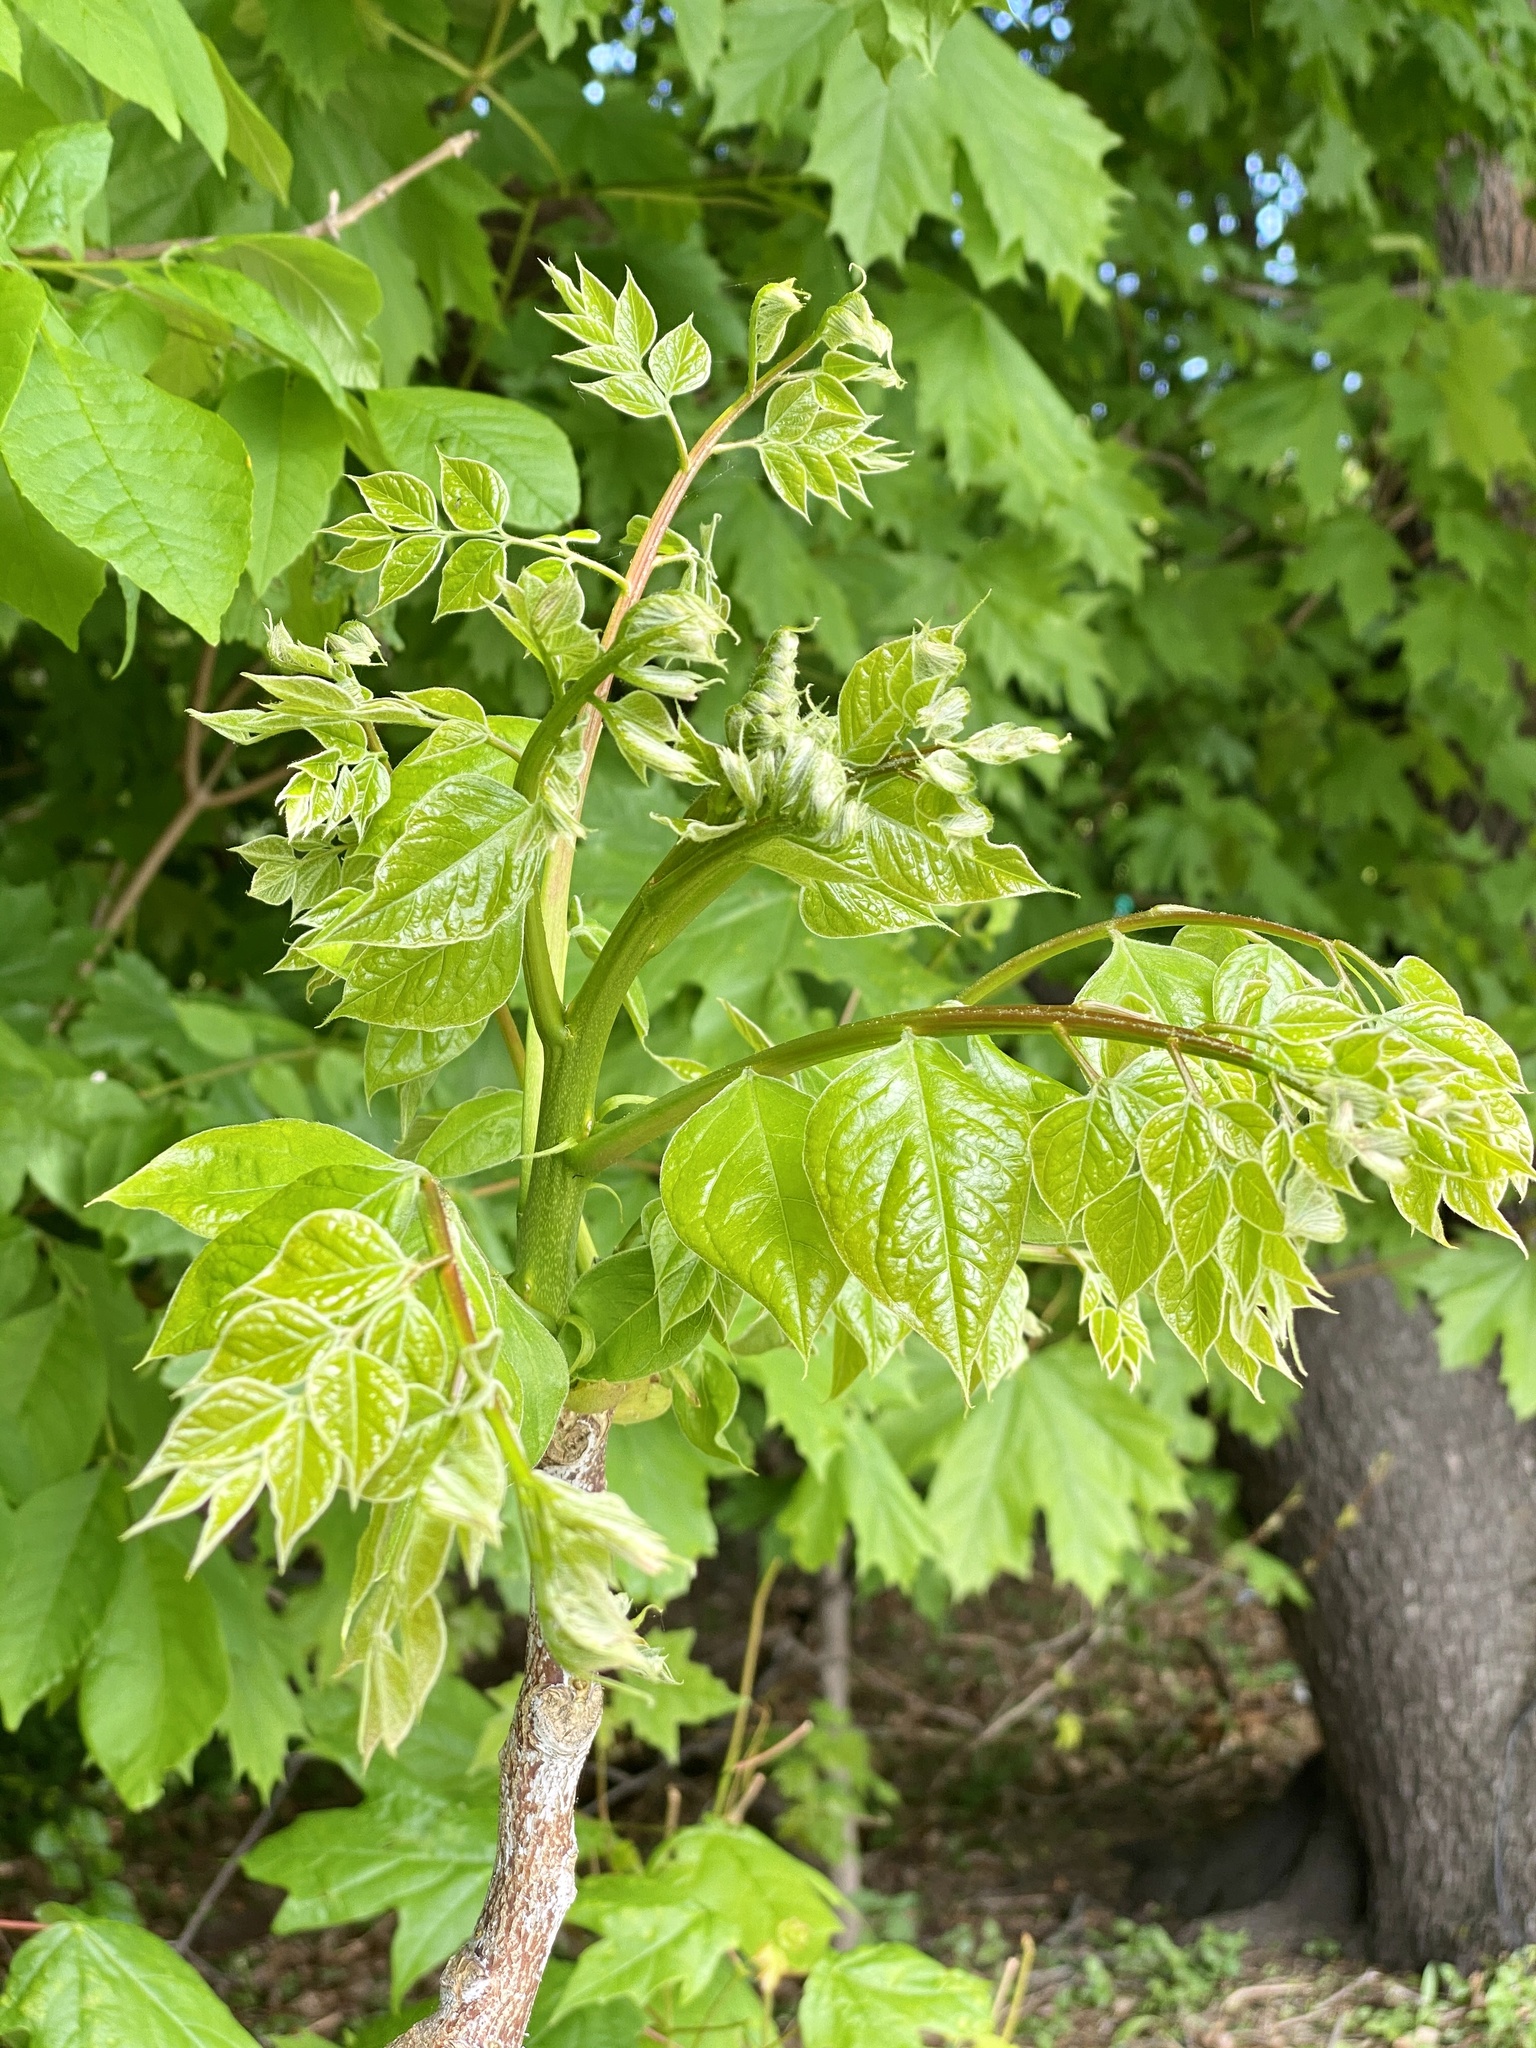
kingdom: Plantae
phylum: Tracheophyta
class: Magnoliopsida
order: Fabales
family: Fabaceae
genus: Gymnocladus
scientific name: Gymnocladus dioicus
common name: Kentucky coffee-tree
